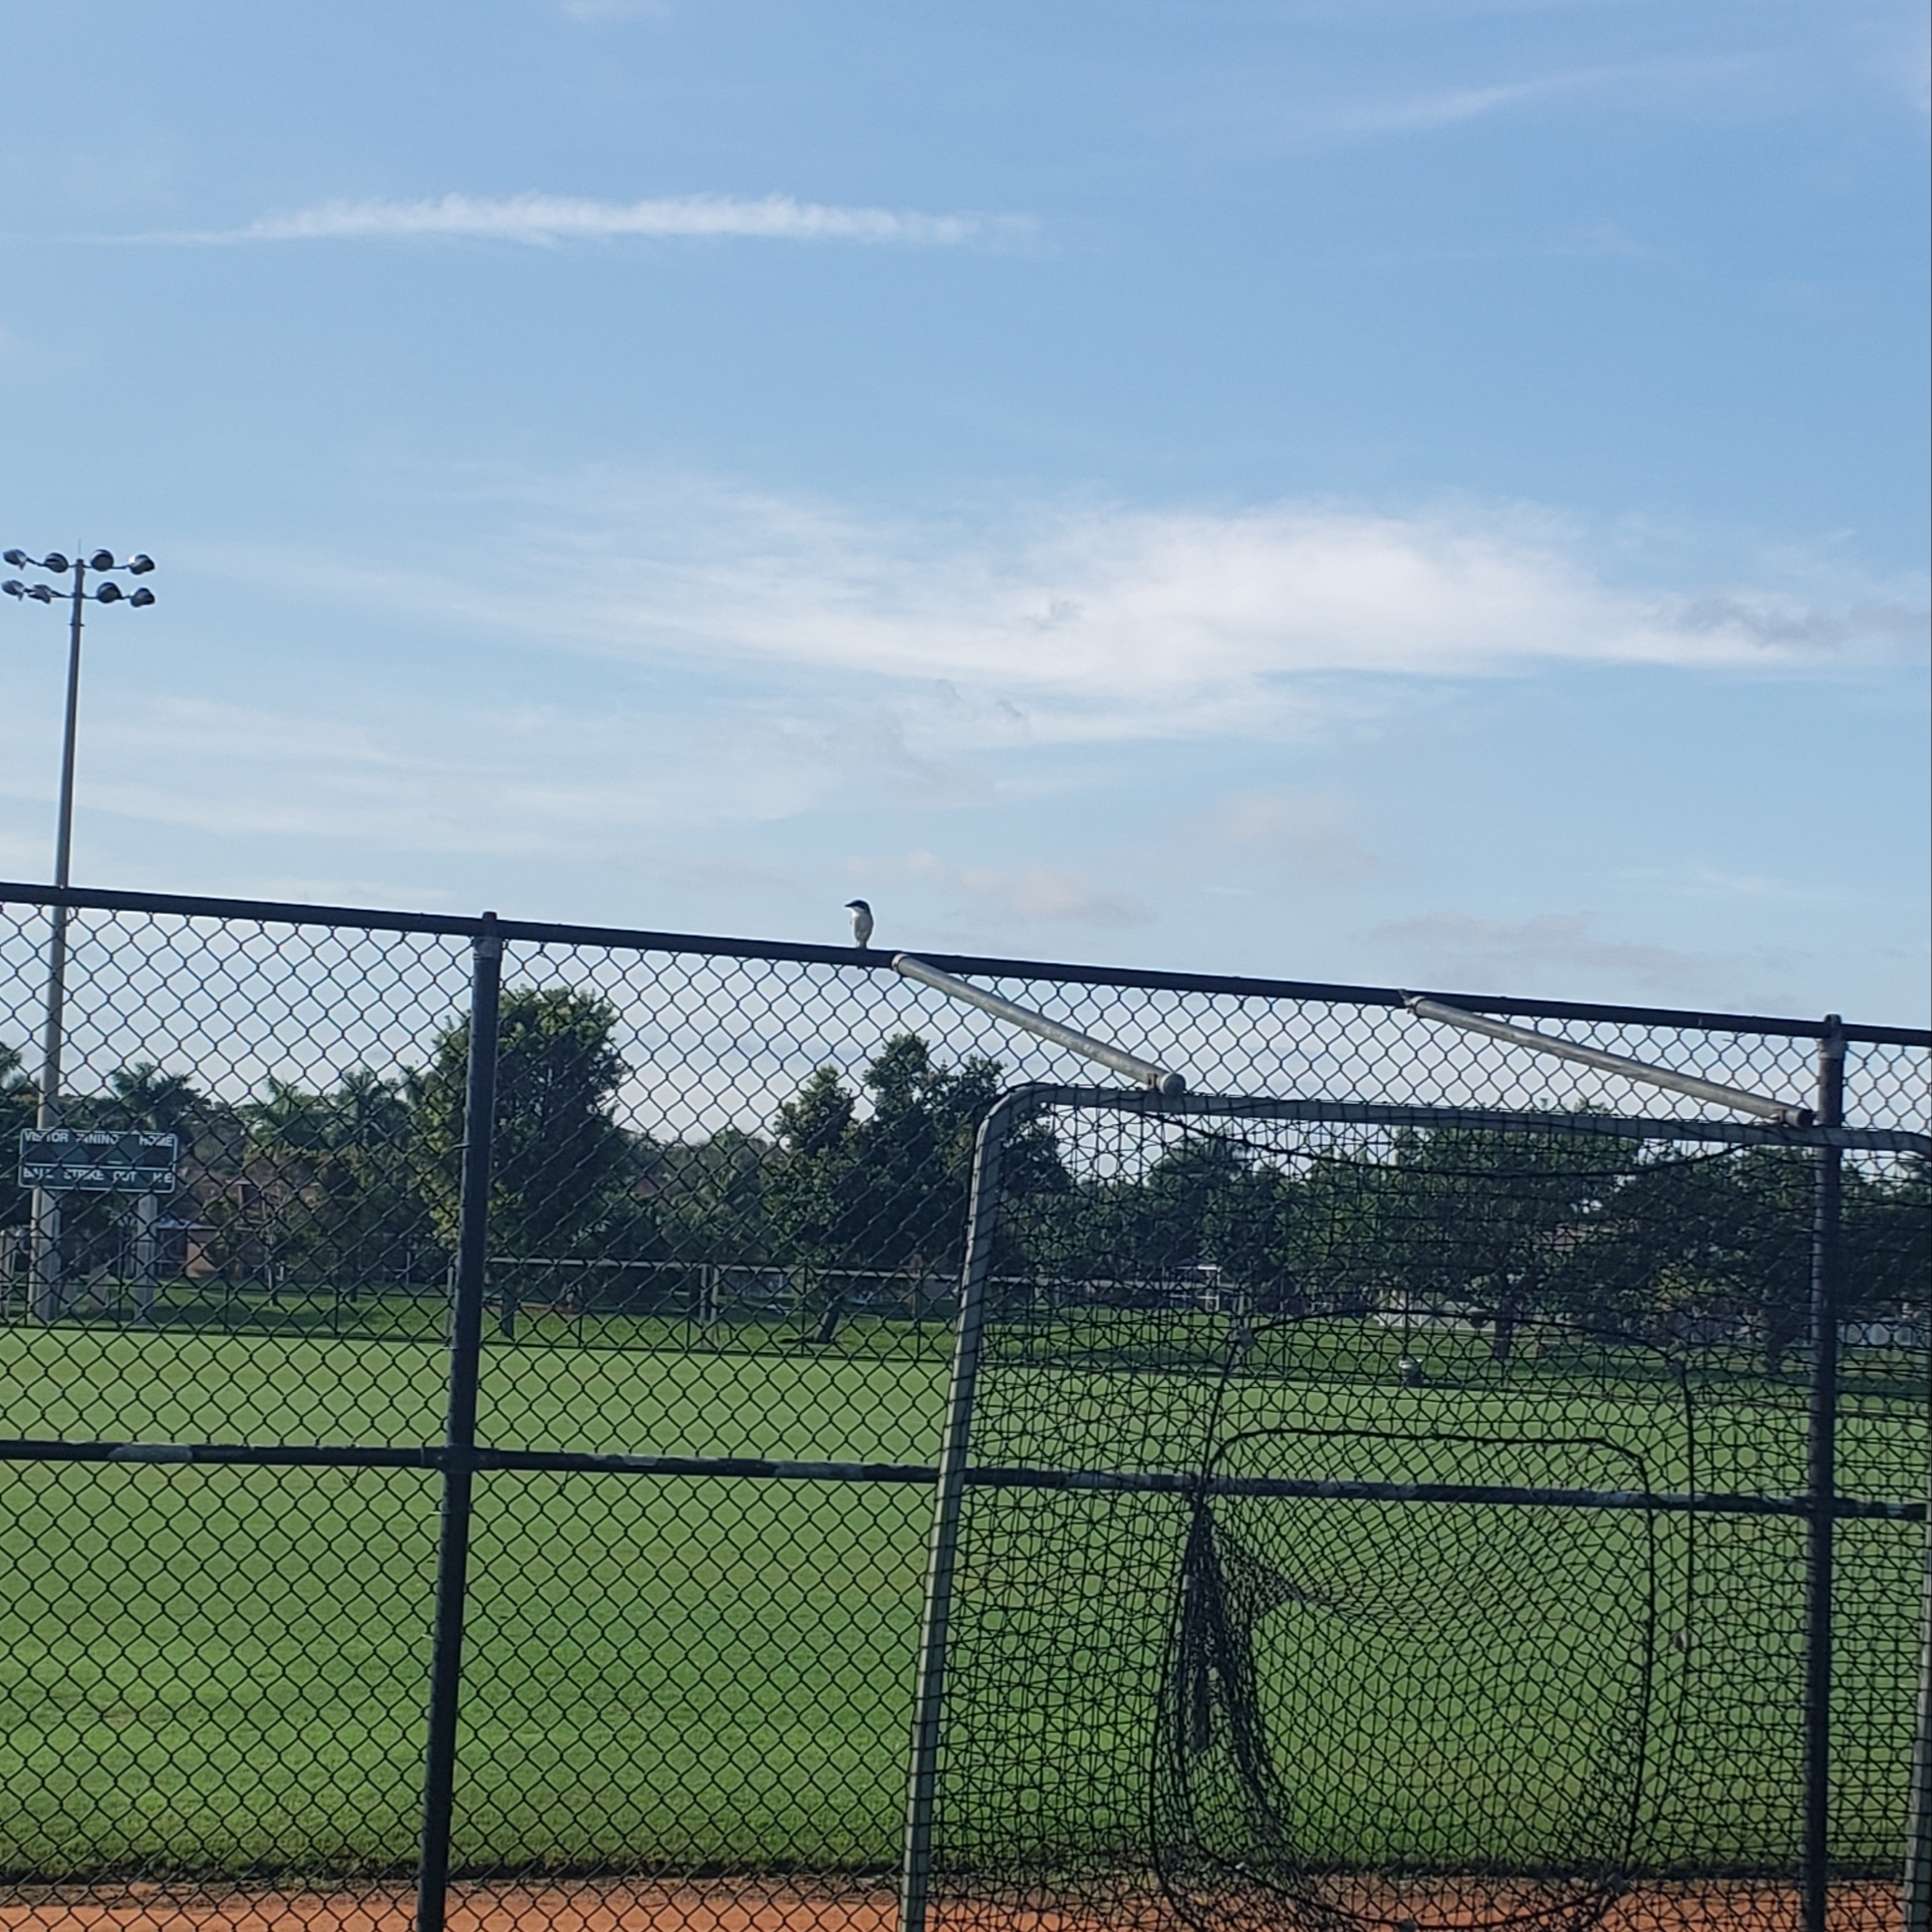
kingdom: Animalia
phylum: Chordata
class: Aves
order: Passeriformes
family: Laniidae
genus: Lanius
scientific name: Lanius ludovicianus
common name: Loggerhead shrike
